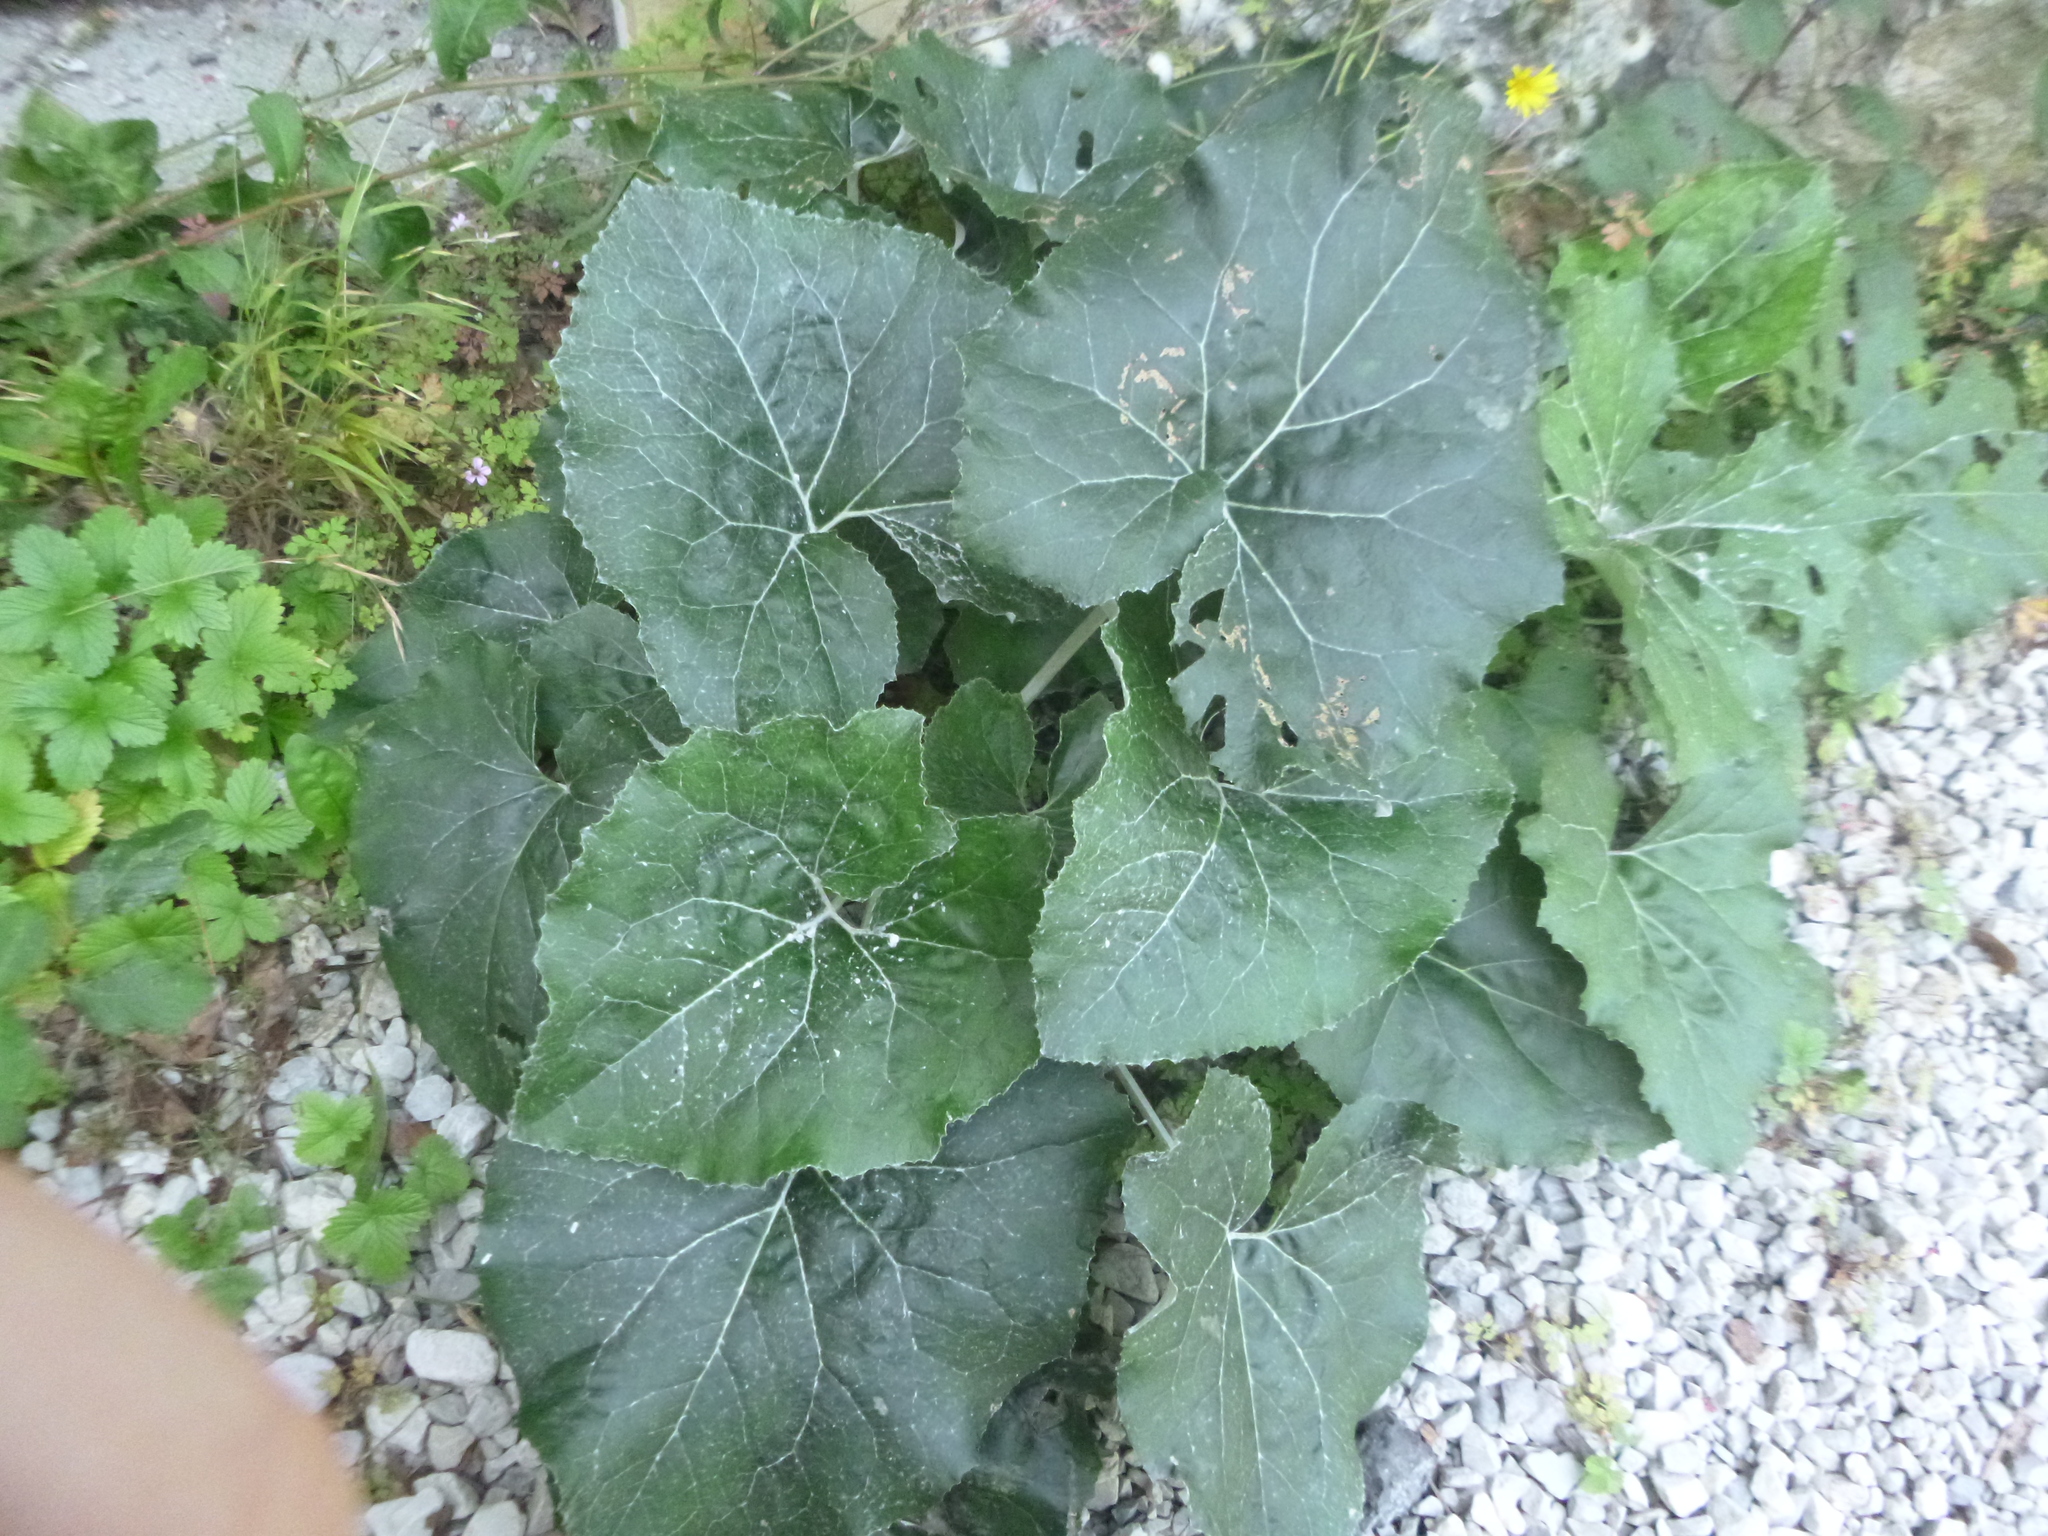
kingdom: Plantae
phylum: Tracheophyta
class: Magnoliopsida
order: Asterales
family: Asteraceae
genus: Petasites
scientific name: Petasites paradoxus
